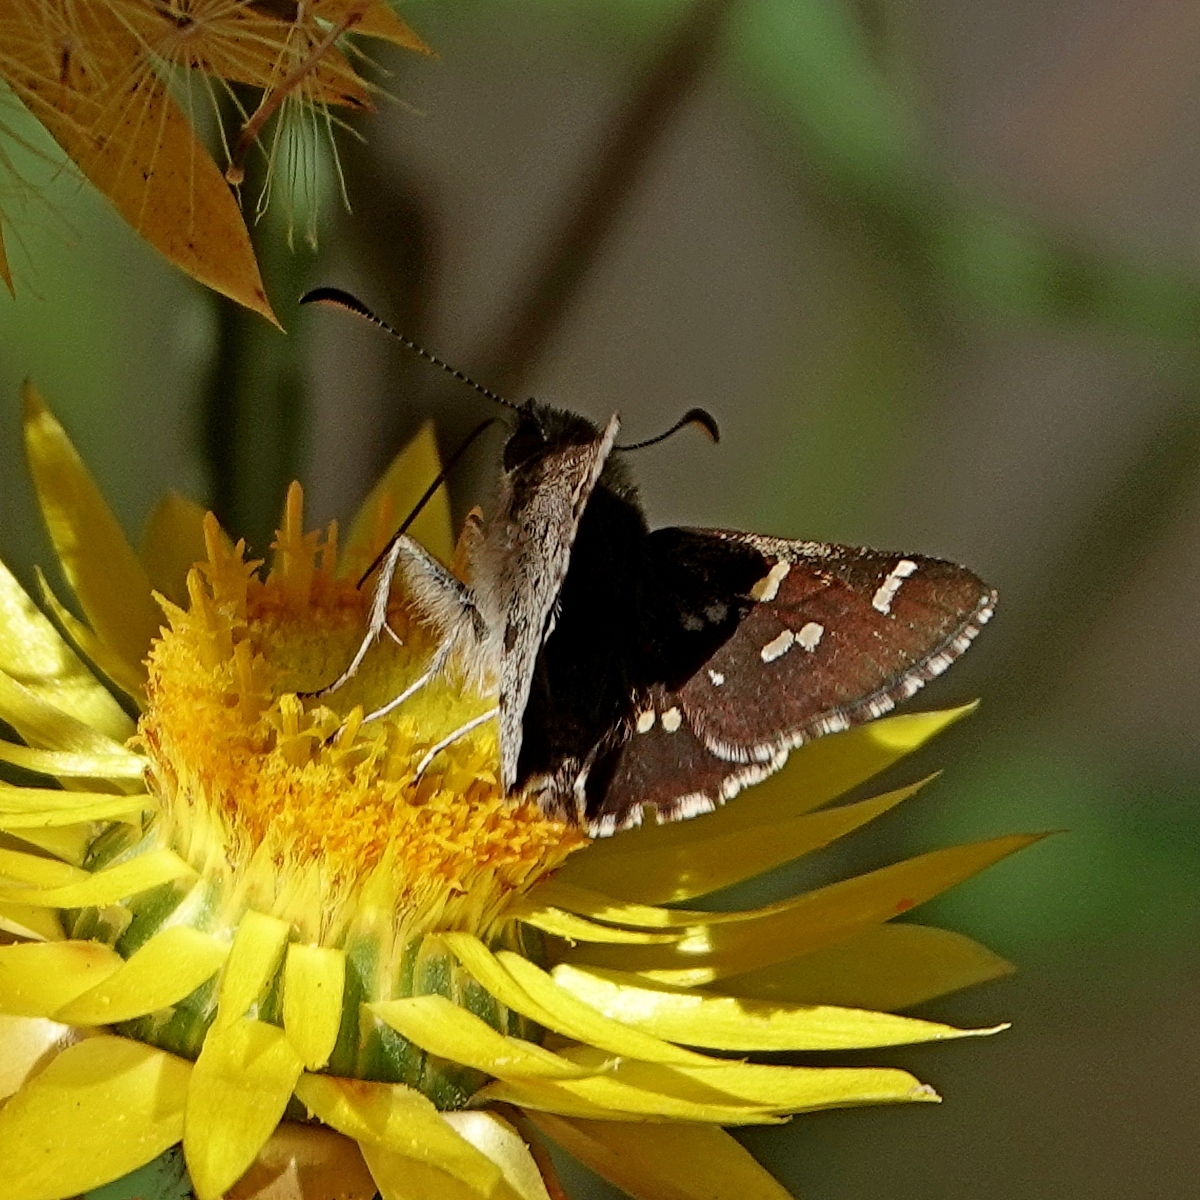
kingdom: Animalia
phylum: Arthropoda
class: Insecta
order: Lepidoptera
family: Hesperiidae
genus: Pasma
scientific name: Pasma tasmanicus
